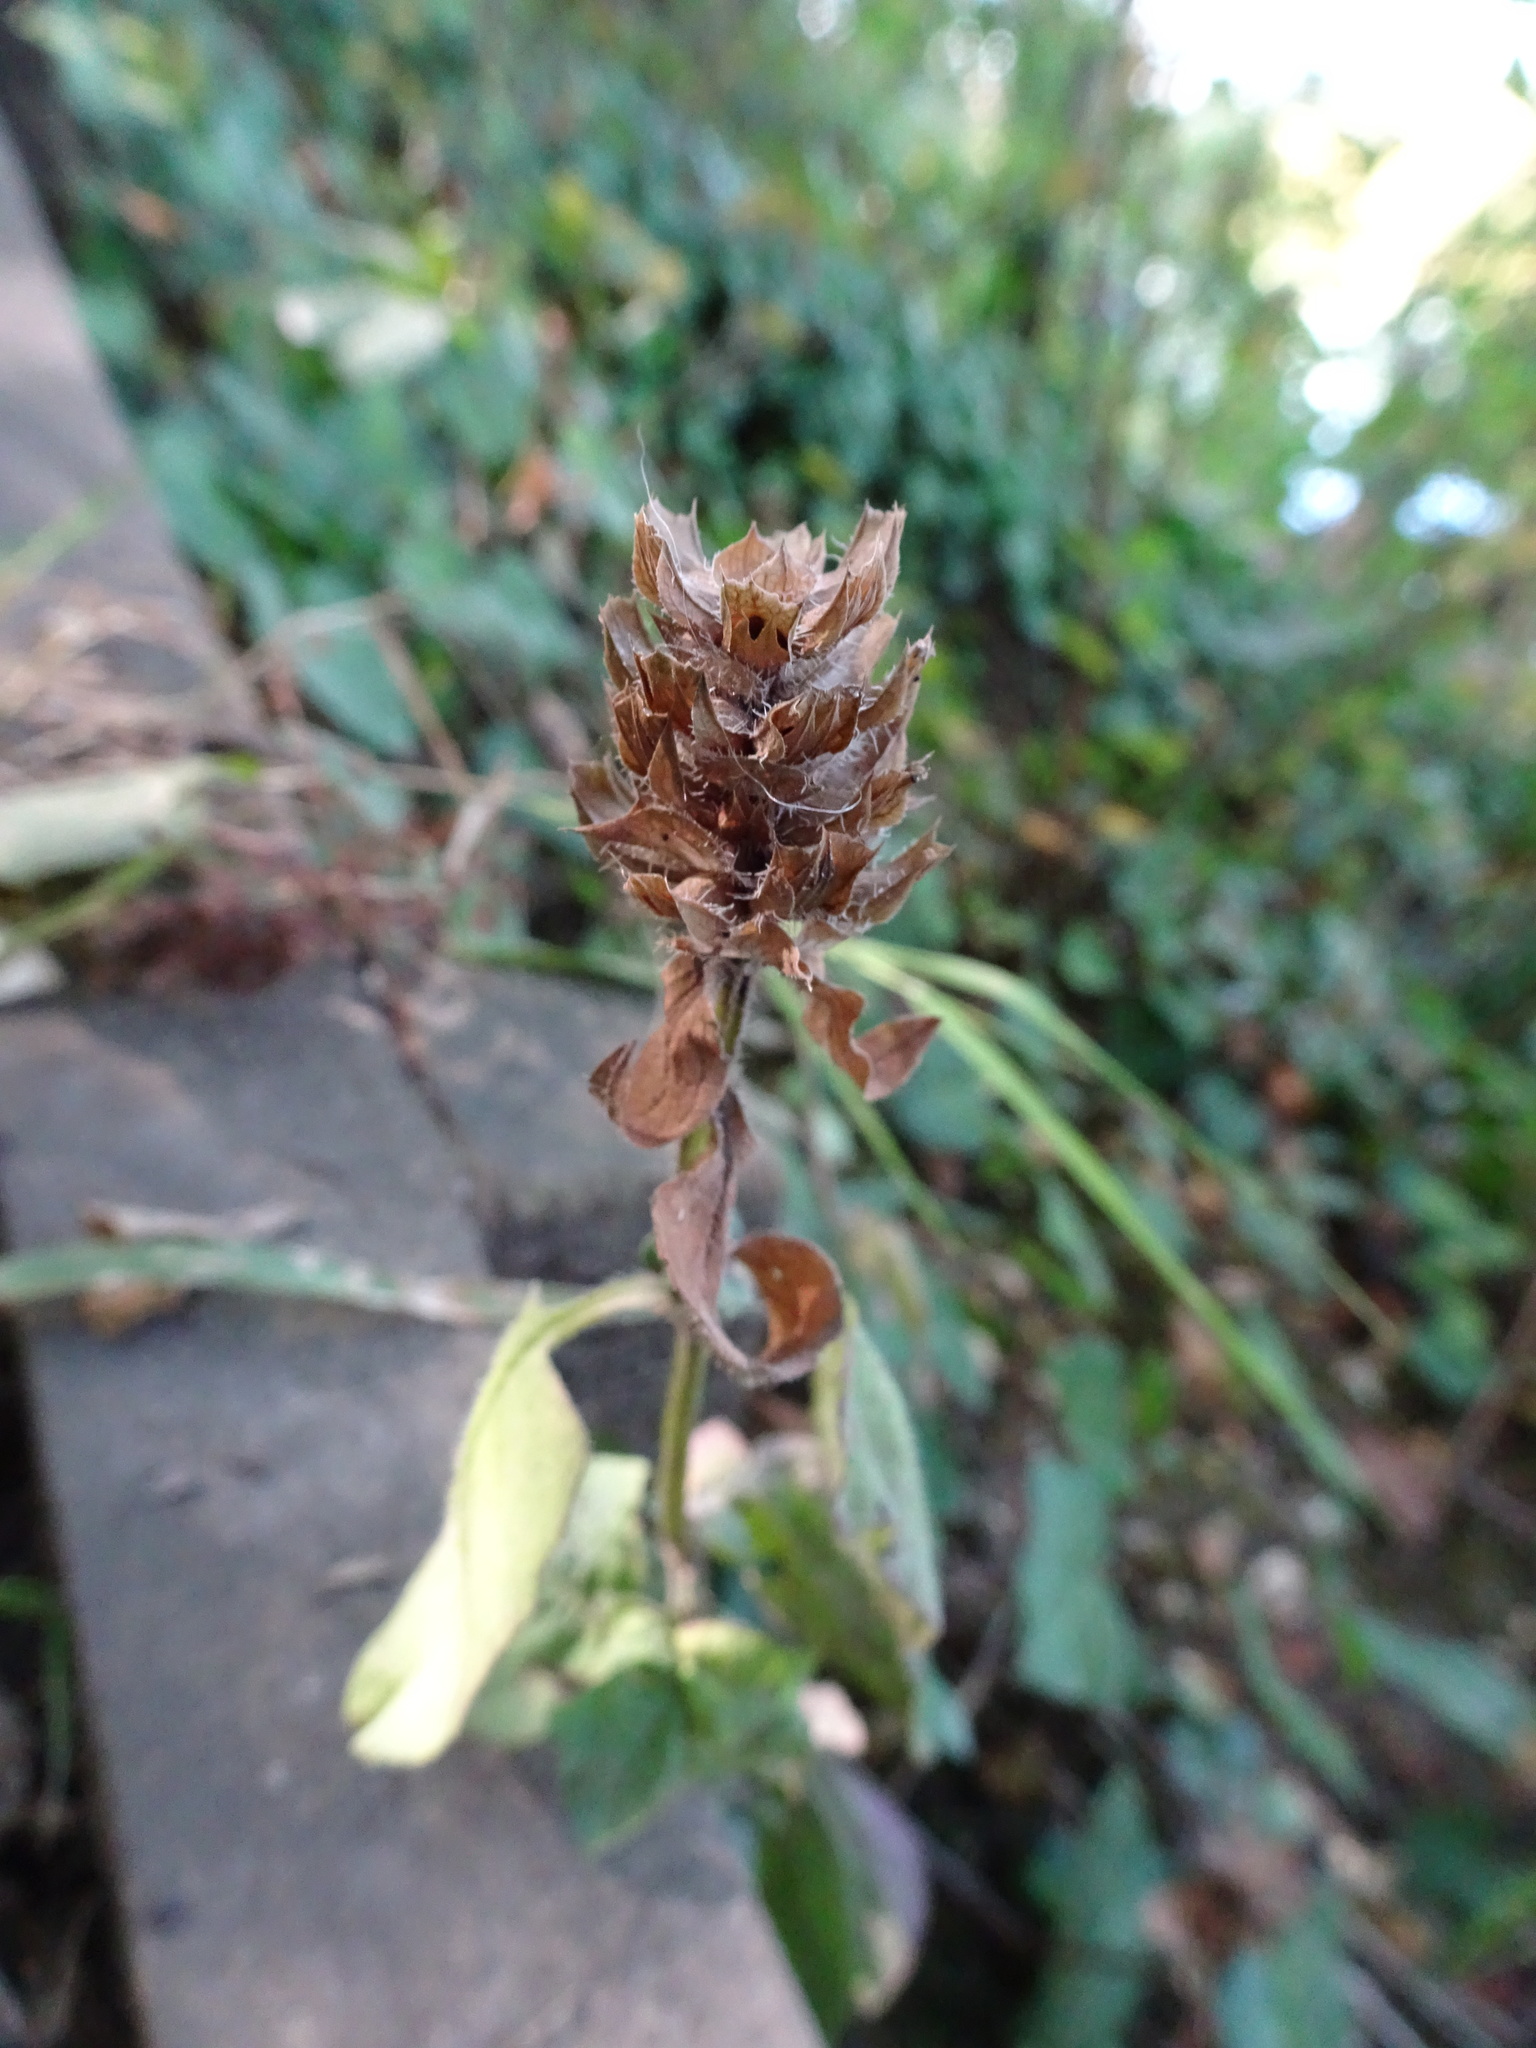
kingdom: Plantae
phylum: Tracheophyta
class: Magnoliopsida
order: Lamiales
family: Lamiaceae
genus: Prunella
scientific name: Prunella vulgaris
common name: Heal-all
